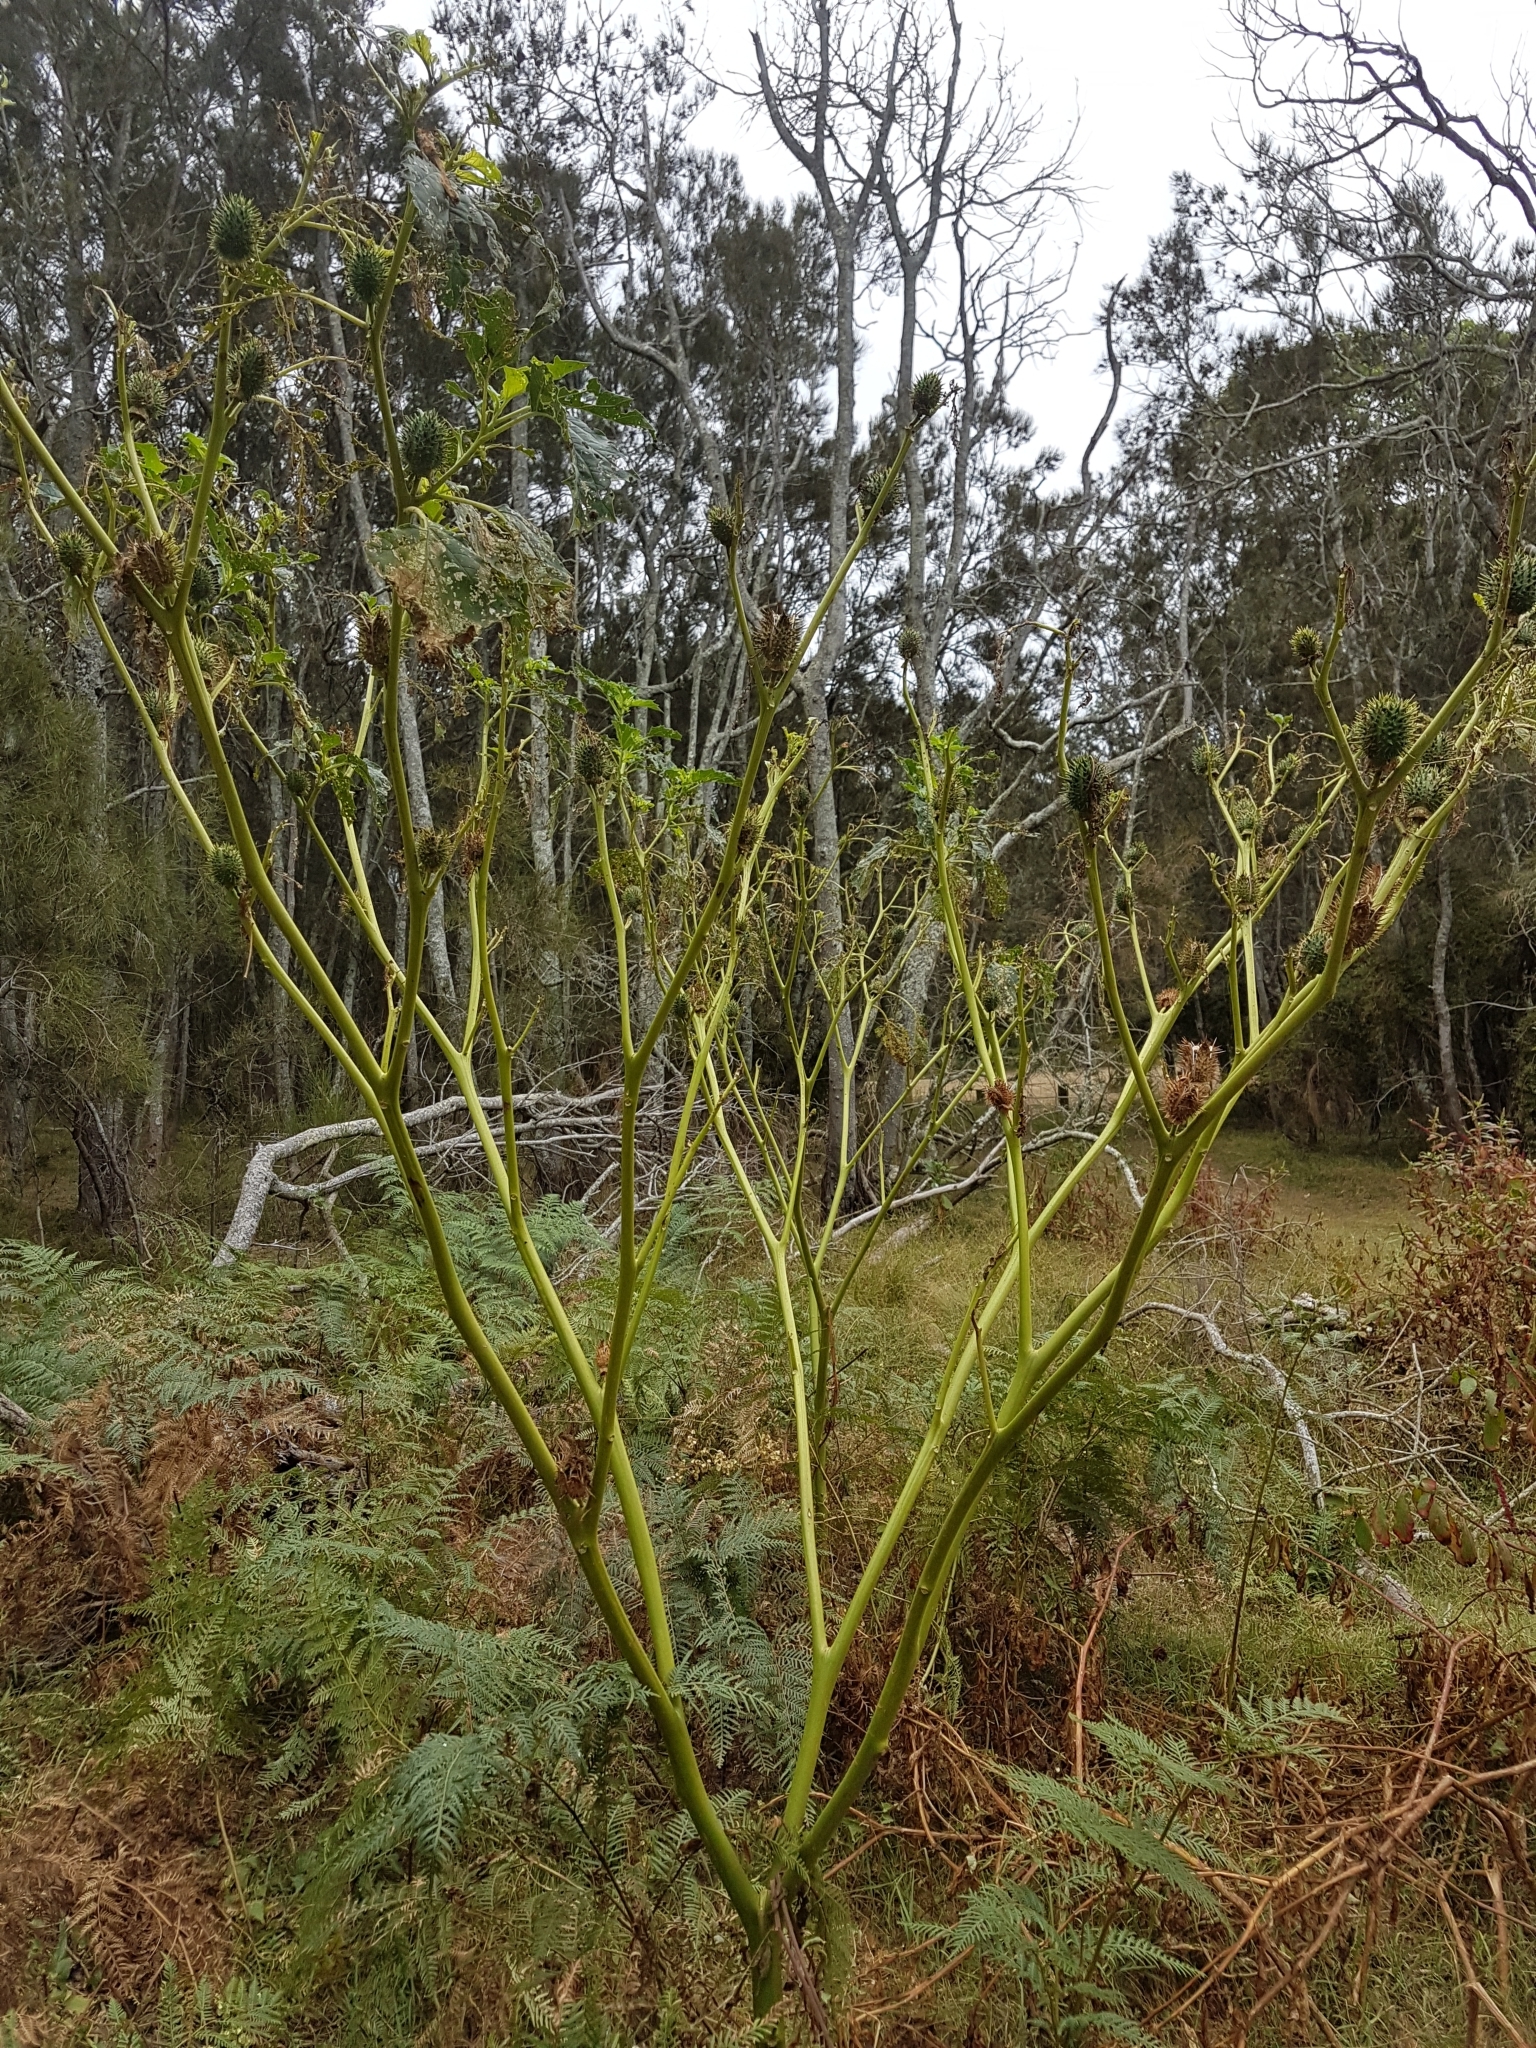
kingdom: Plantae
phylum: Tracheophyta
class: Magnoliopsida
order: Solanales
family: Solanaceae
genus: Datura
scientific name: Datura stramonium
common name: Thorn-apple
